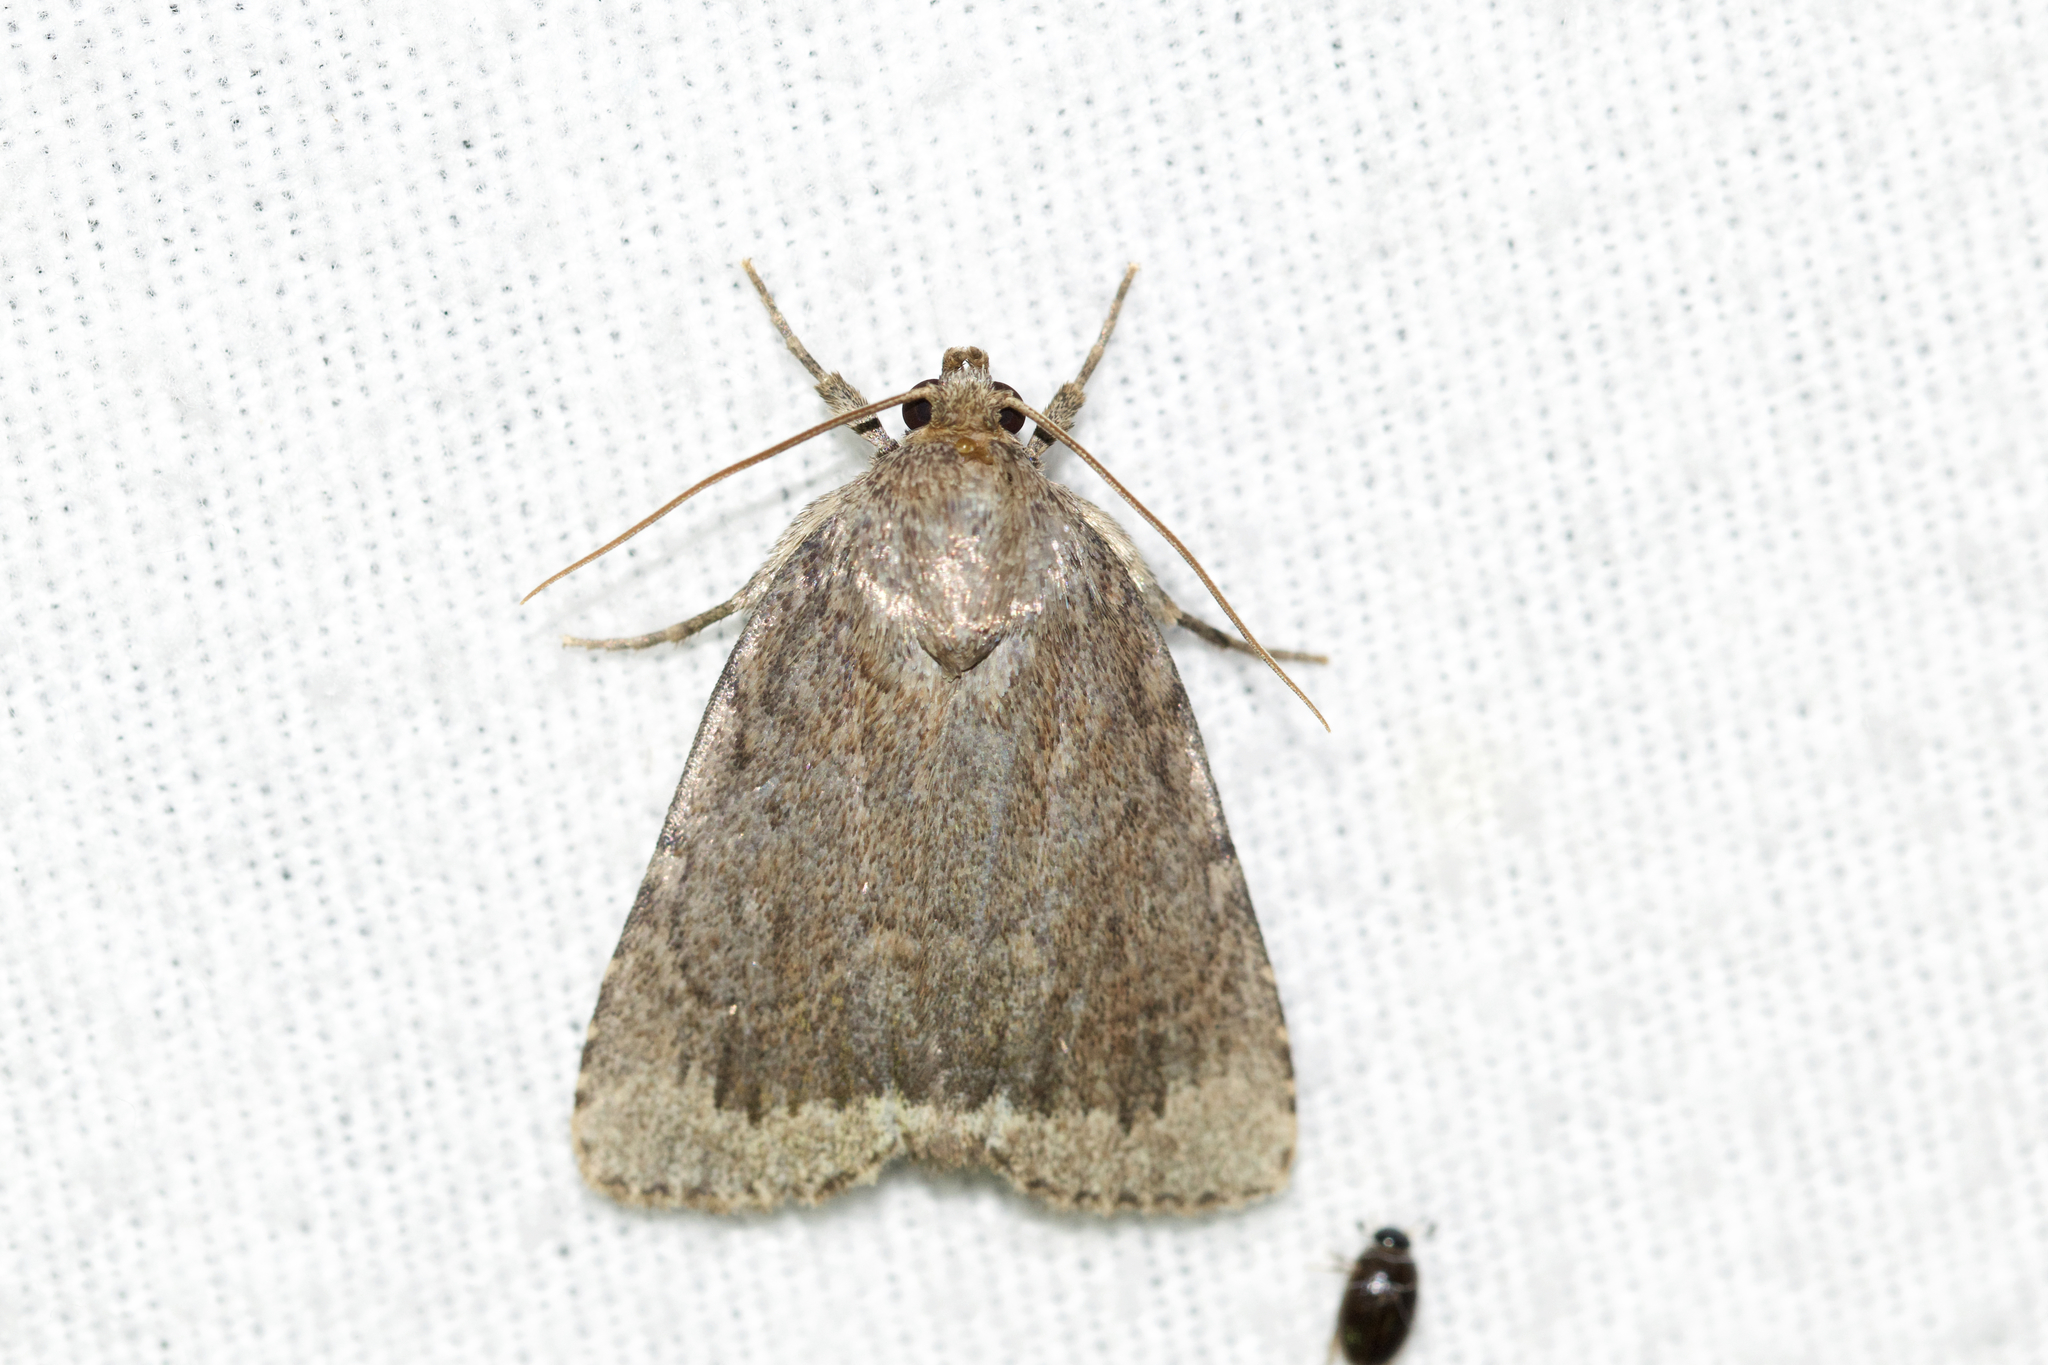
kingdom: Animalia
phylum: Arthropoda
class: Insecta
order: Lepidoptera
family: Noctuidae
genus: Amphipyra
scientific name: Amphipyra pyramidoides
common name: American copper underwing
